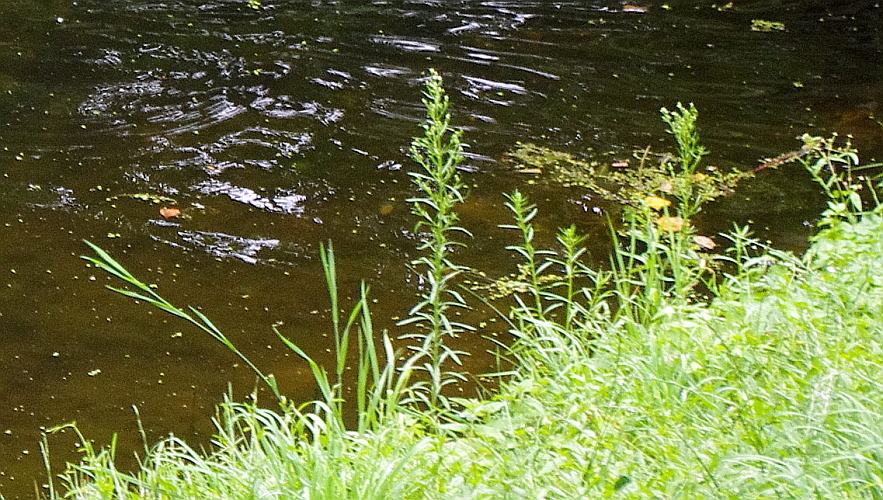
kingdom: Plantae
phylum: Tracheophyta
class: Magnoliopsida
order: Asterales
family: Asteraceae
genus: Erigeron
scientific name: Erigeron canadensis
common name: Canadian fleabane
